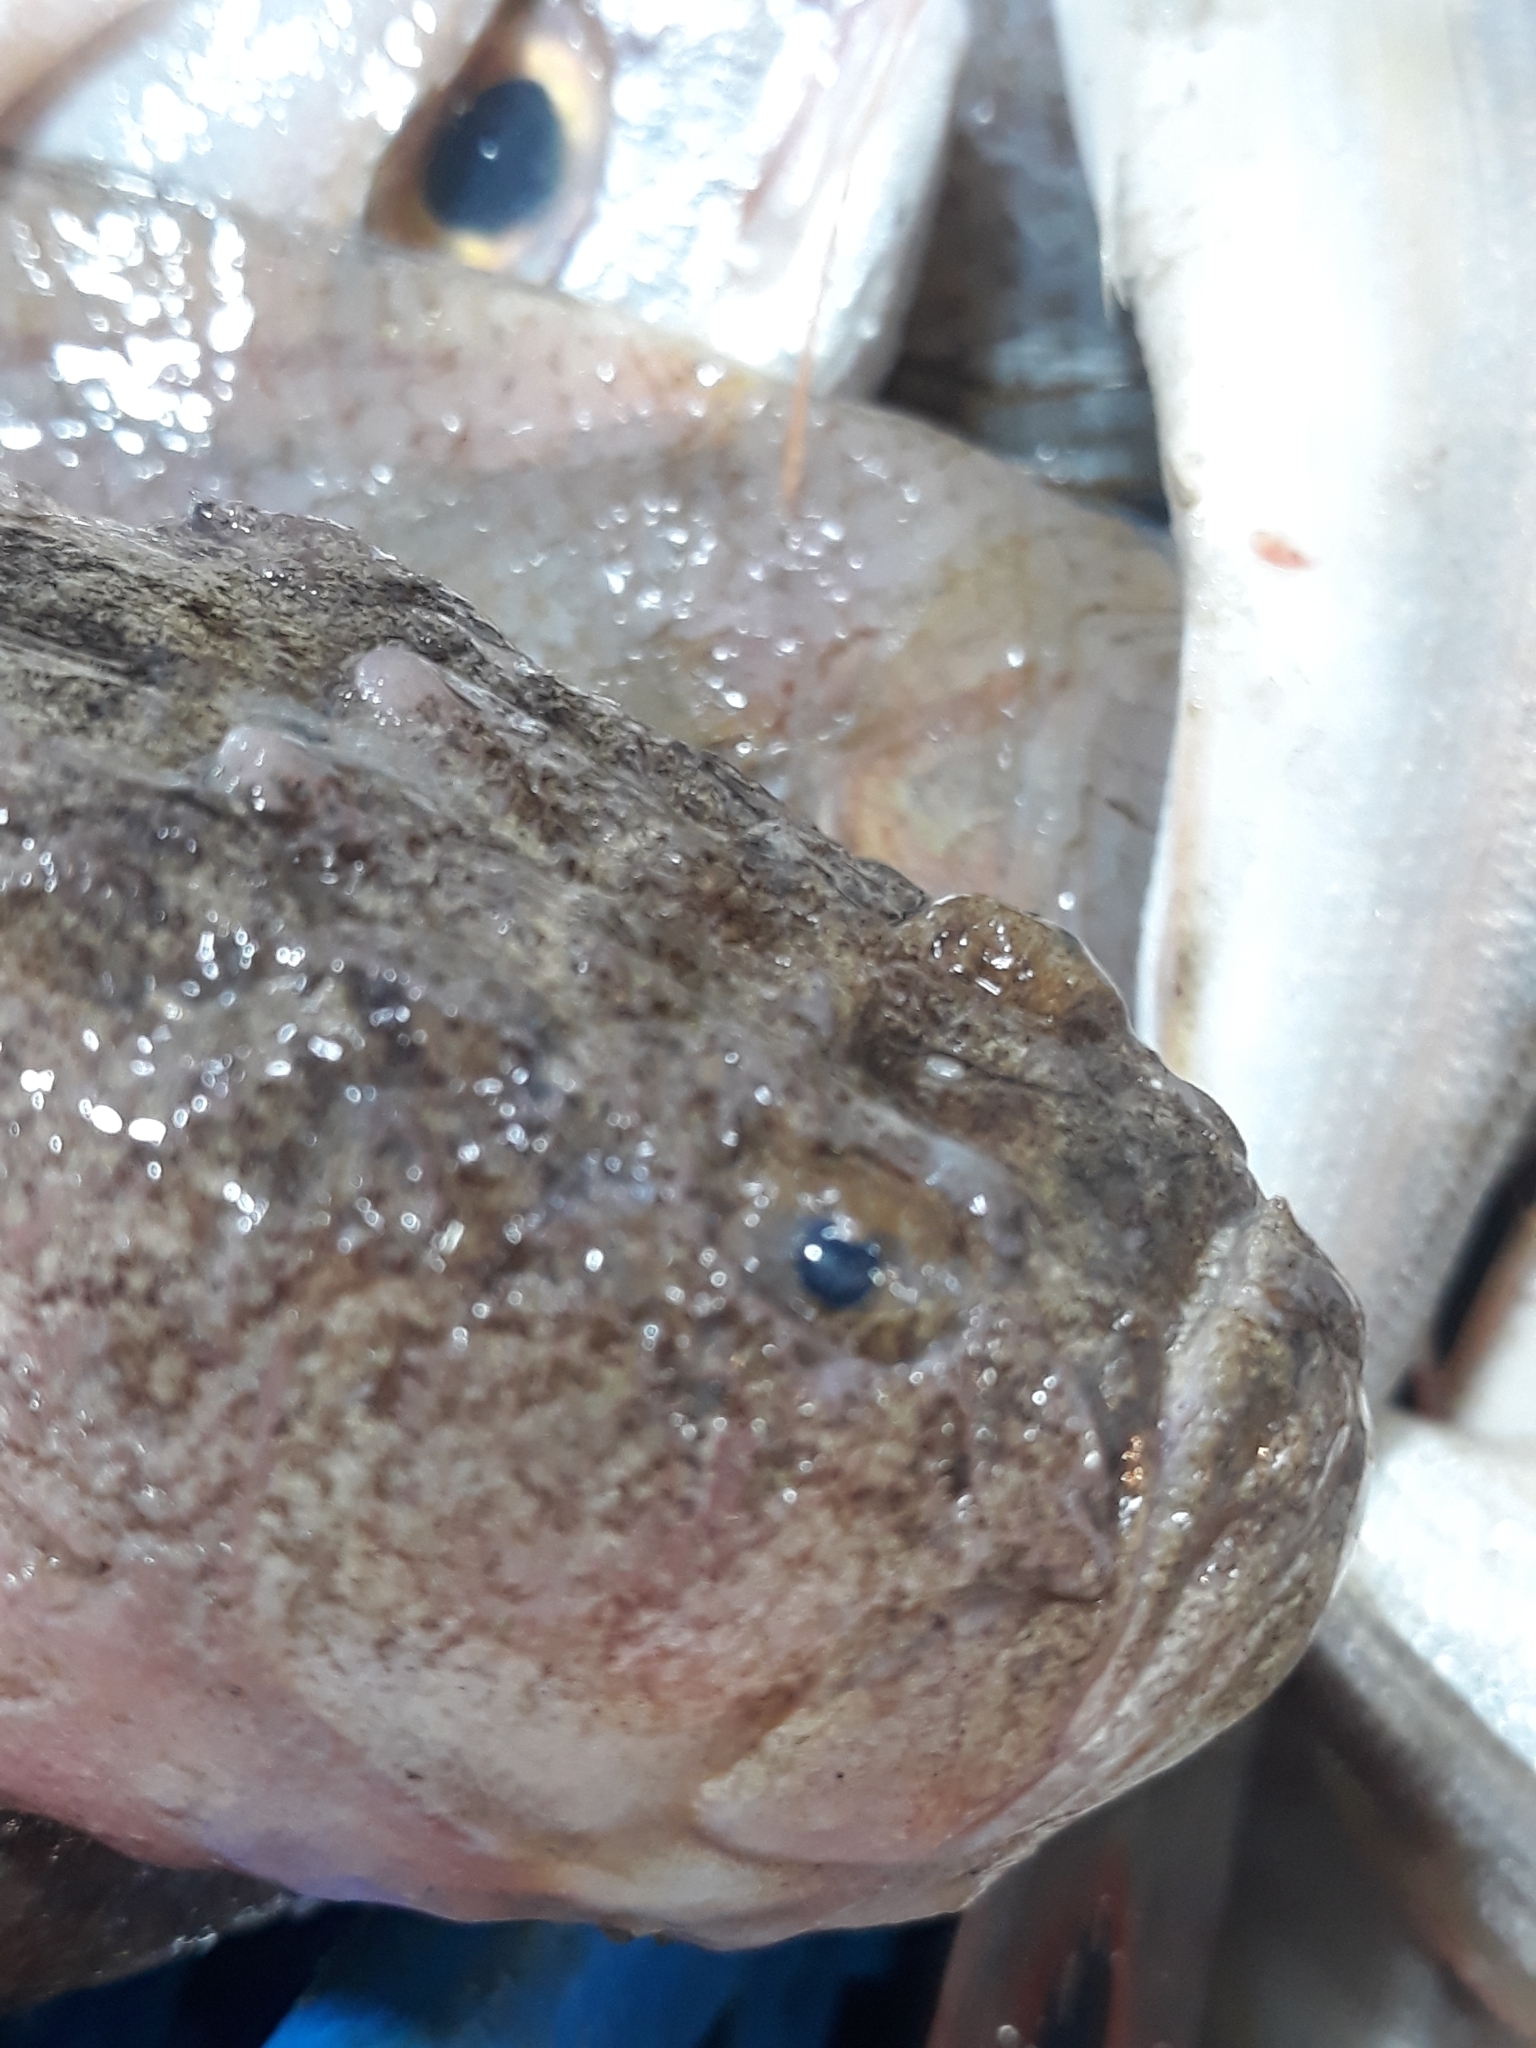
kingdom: Animalia
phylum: Chordata
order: Perciformes
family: Uranoscopidae
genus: Uranoscopus
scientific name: Uranoscopus scaber
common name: Stargazer
